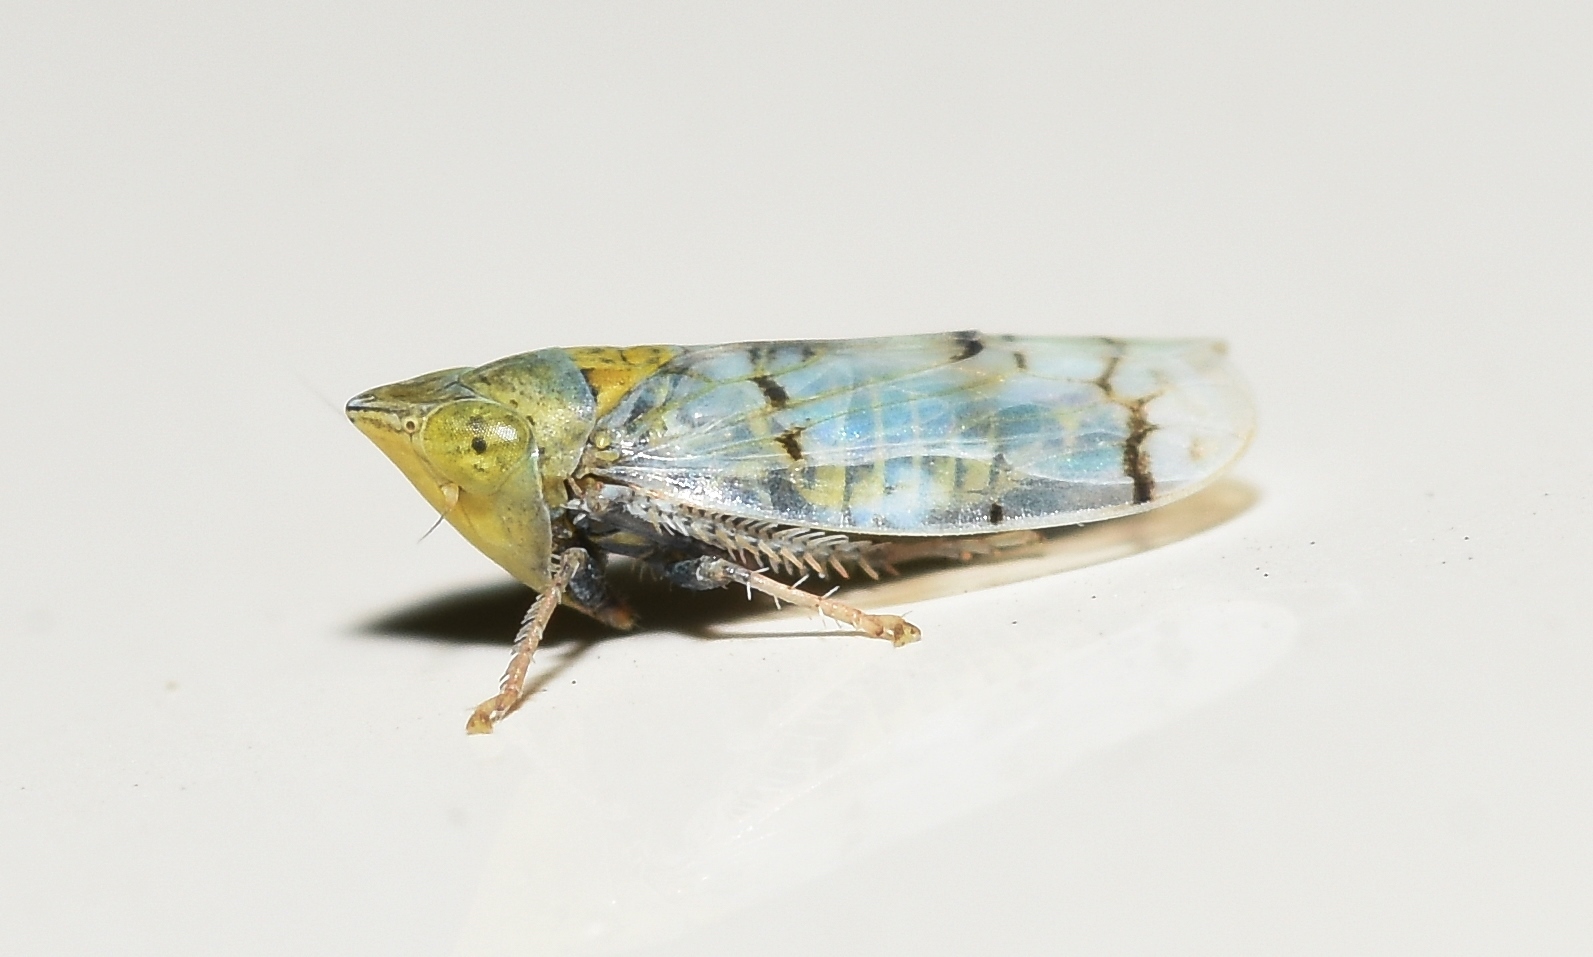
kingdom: Animalia
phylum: Arthropoda
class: Insecta
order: Hemiptera
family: Cicadellidae
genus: Japananus
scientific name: Japananus hyalinus
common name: The japanese maple leafhopper
